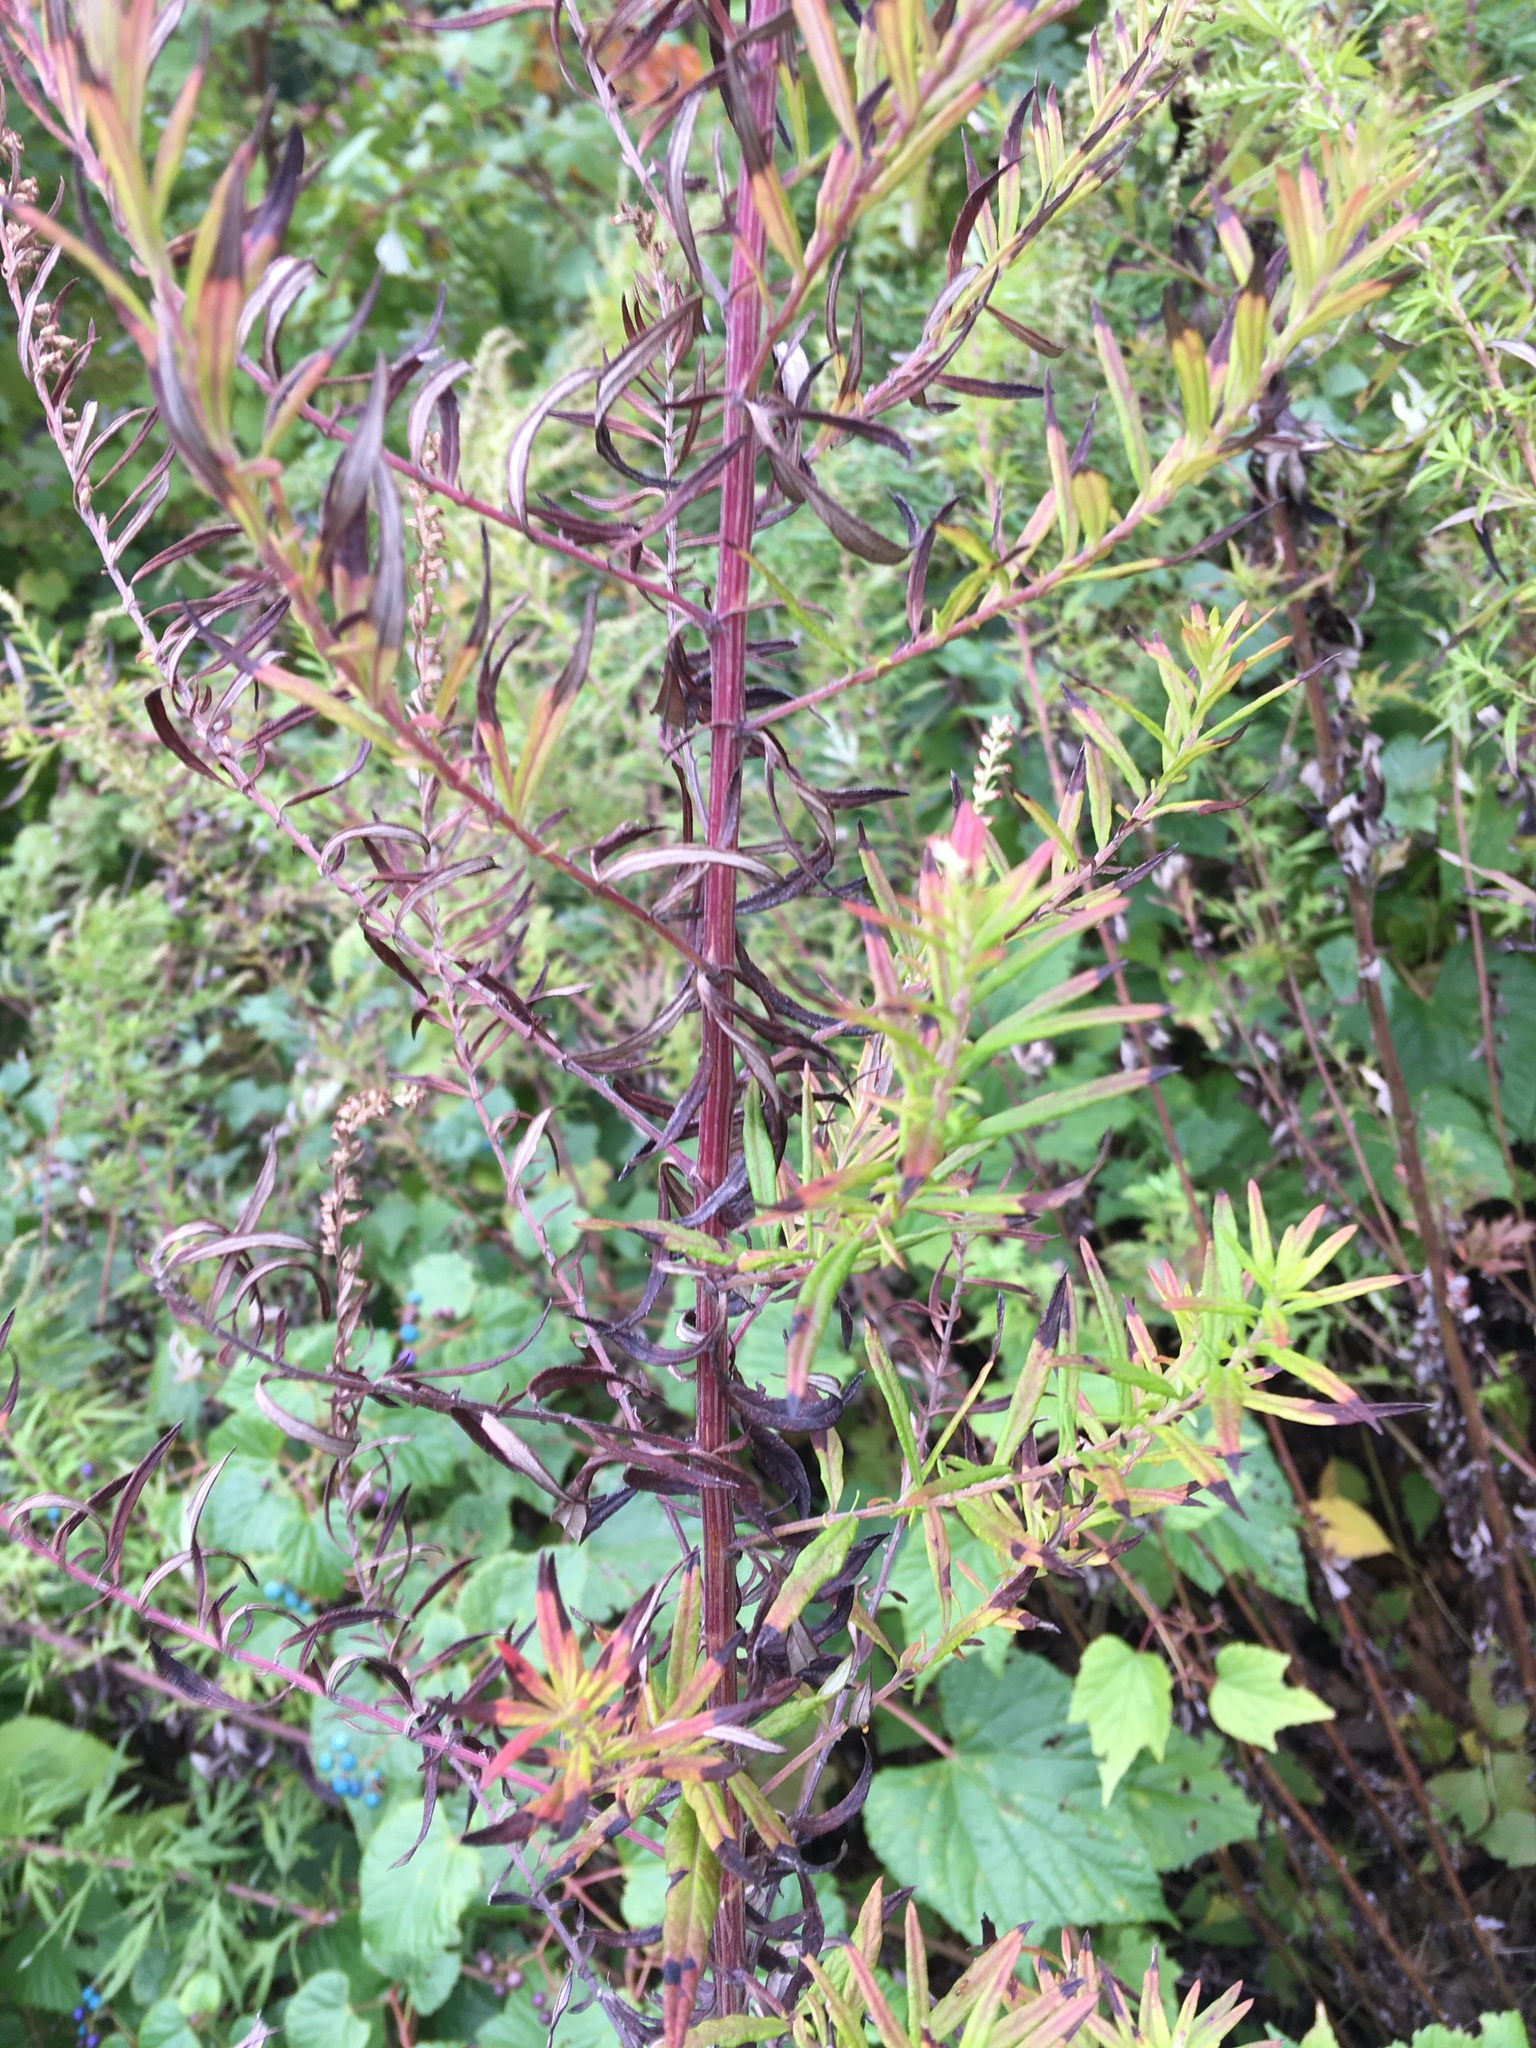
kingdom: Plantae
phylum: Tracheophyta
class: Magnoliopsida
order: Asterales
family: Asteraceae
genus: Artemisia
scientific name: Artemisia vulgaris
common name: Mugwort
